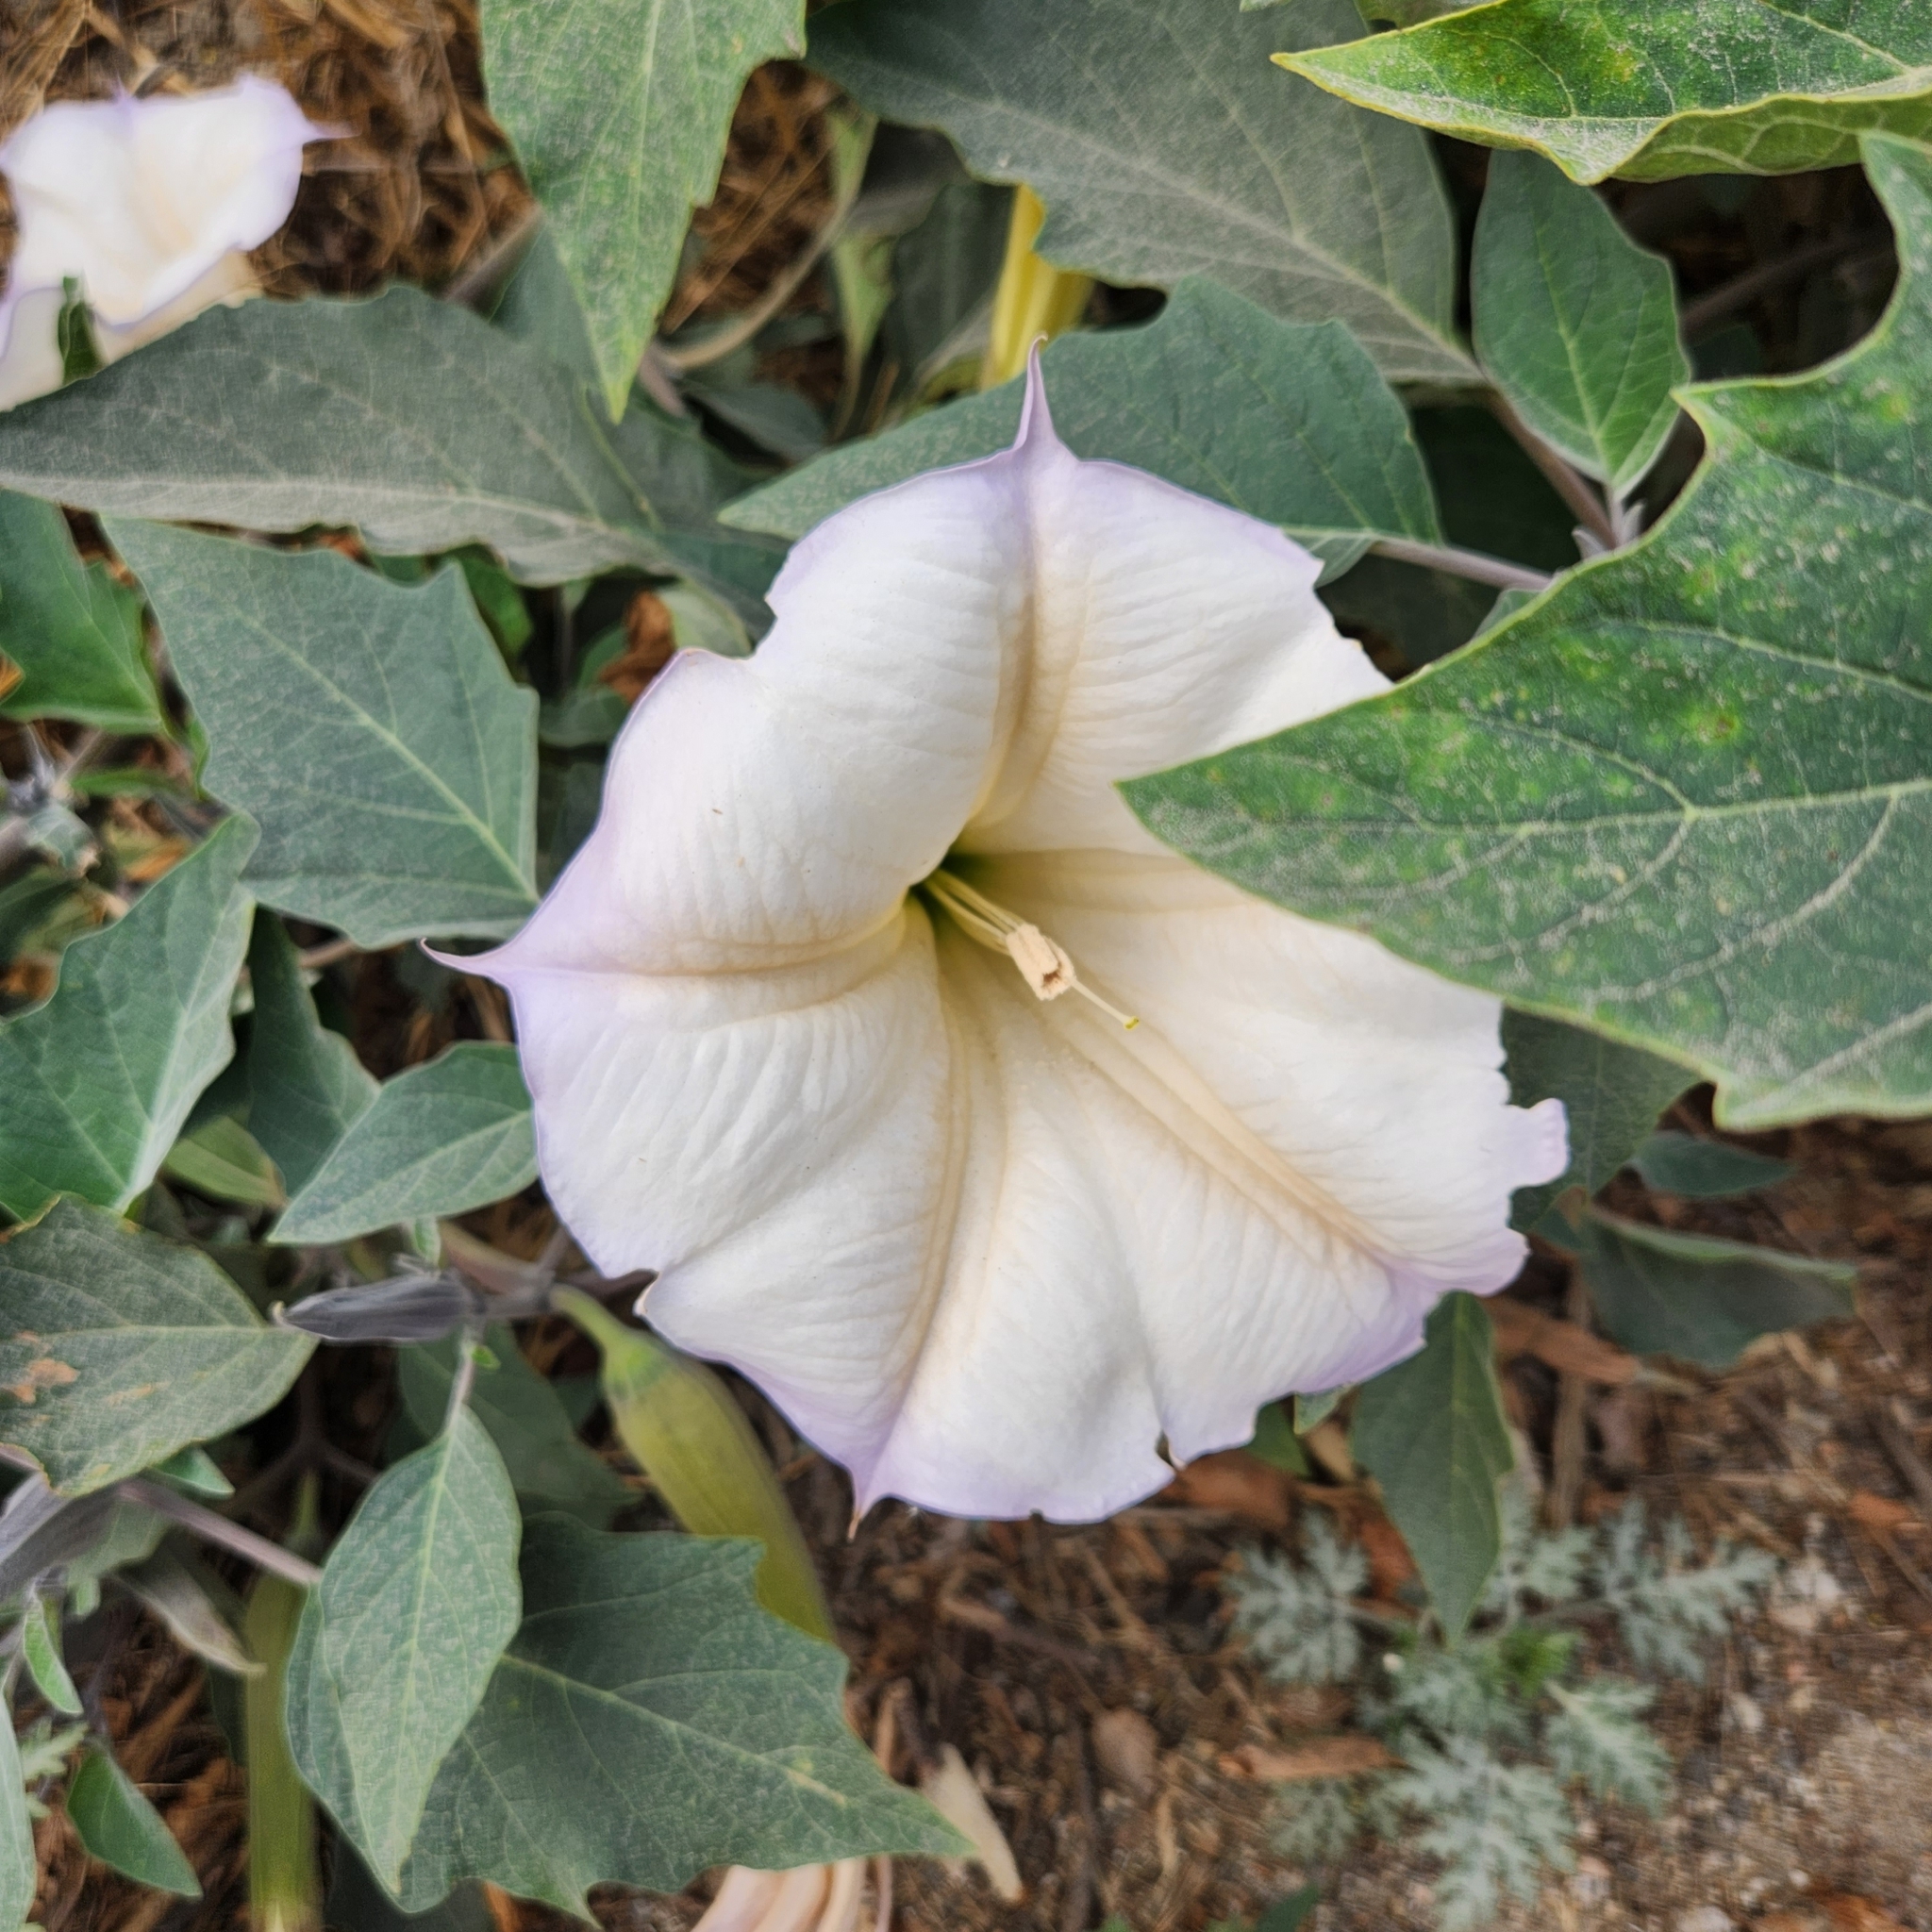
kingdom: Plantae
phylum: Tracheophyta
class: Magnoliopsida
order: Solanales
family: Solanaceae
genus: Datura
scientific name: Datura wrightii
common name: Sacred thorn-apple
